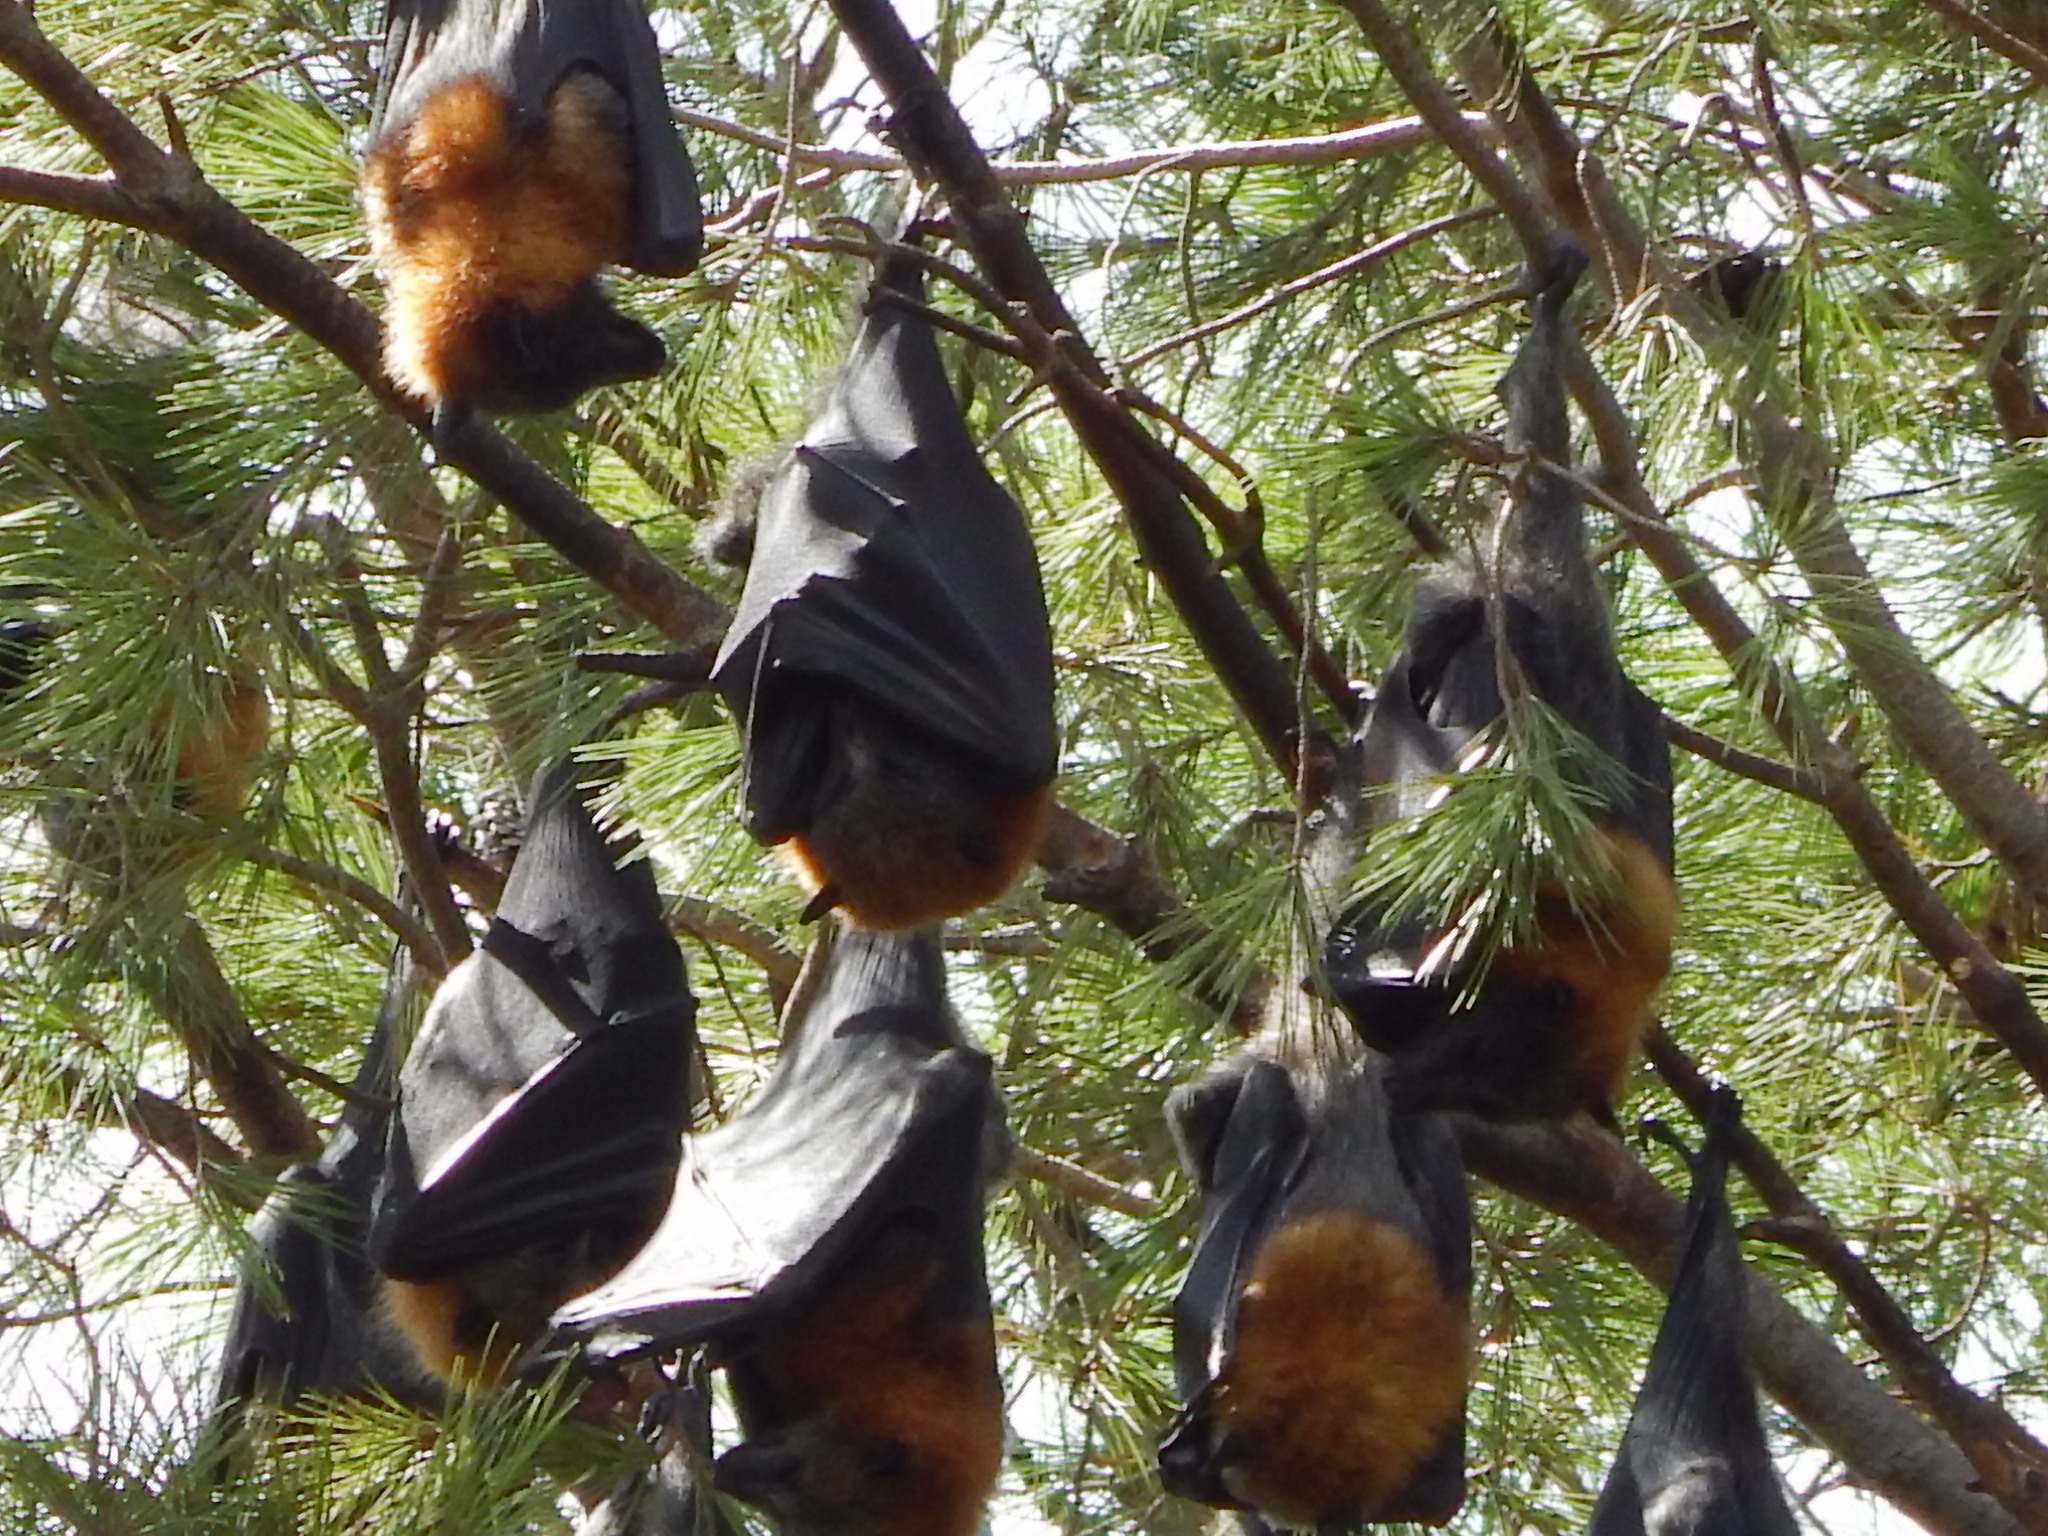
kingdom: Animalia
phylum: Chordata
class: Mammalia
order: Chiroptera
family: Pteropodidae
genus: Pteropus
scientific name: Pteropus poliocephalus
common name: Gray-headed flying fox
